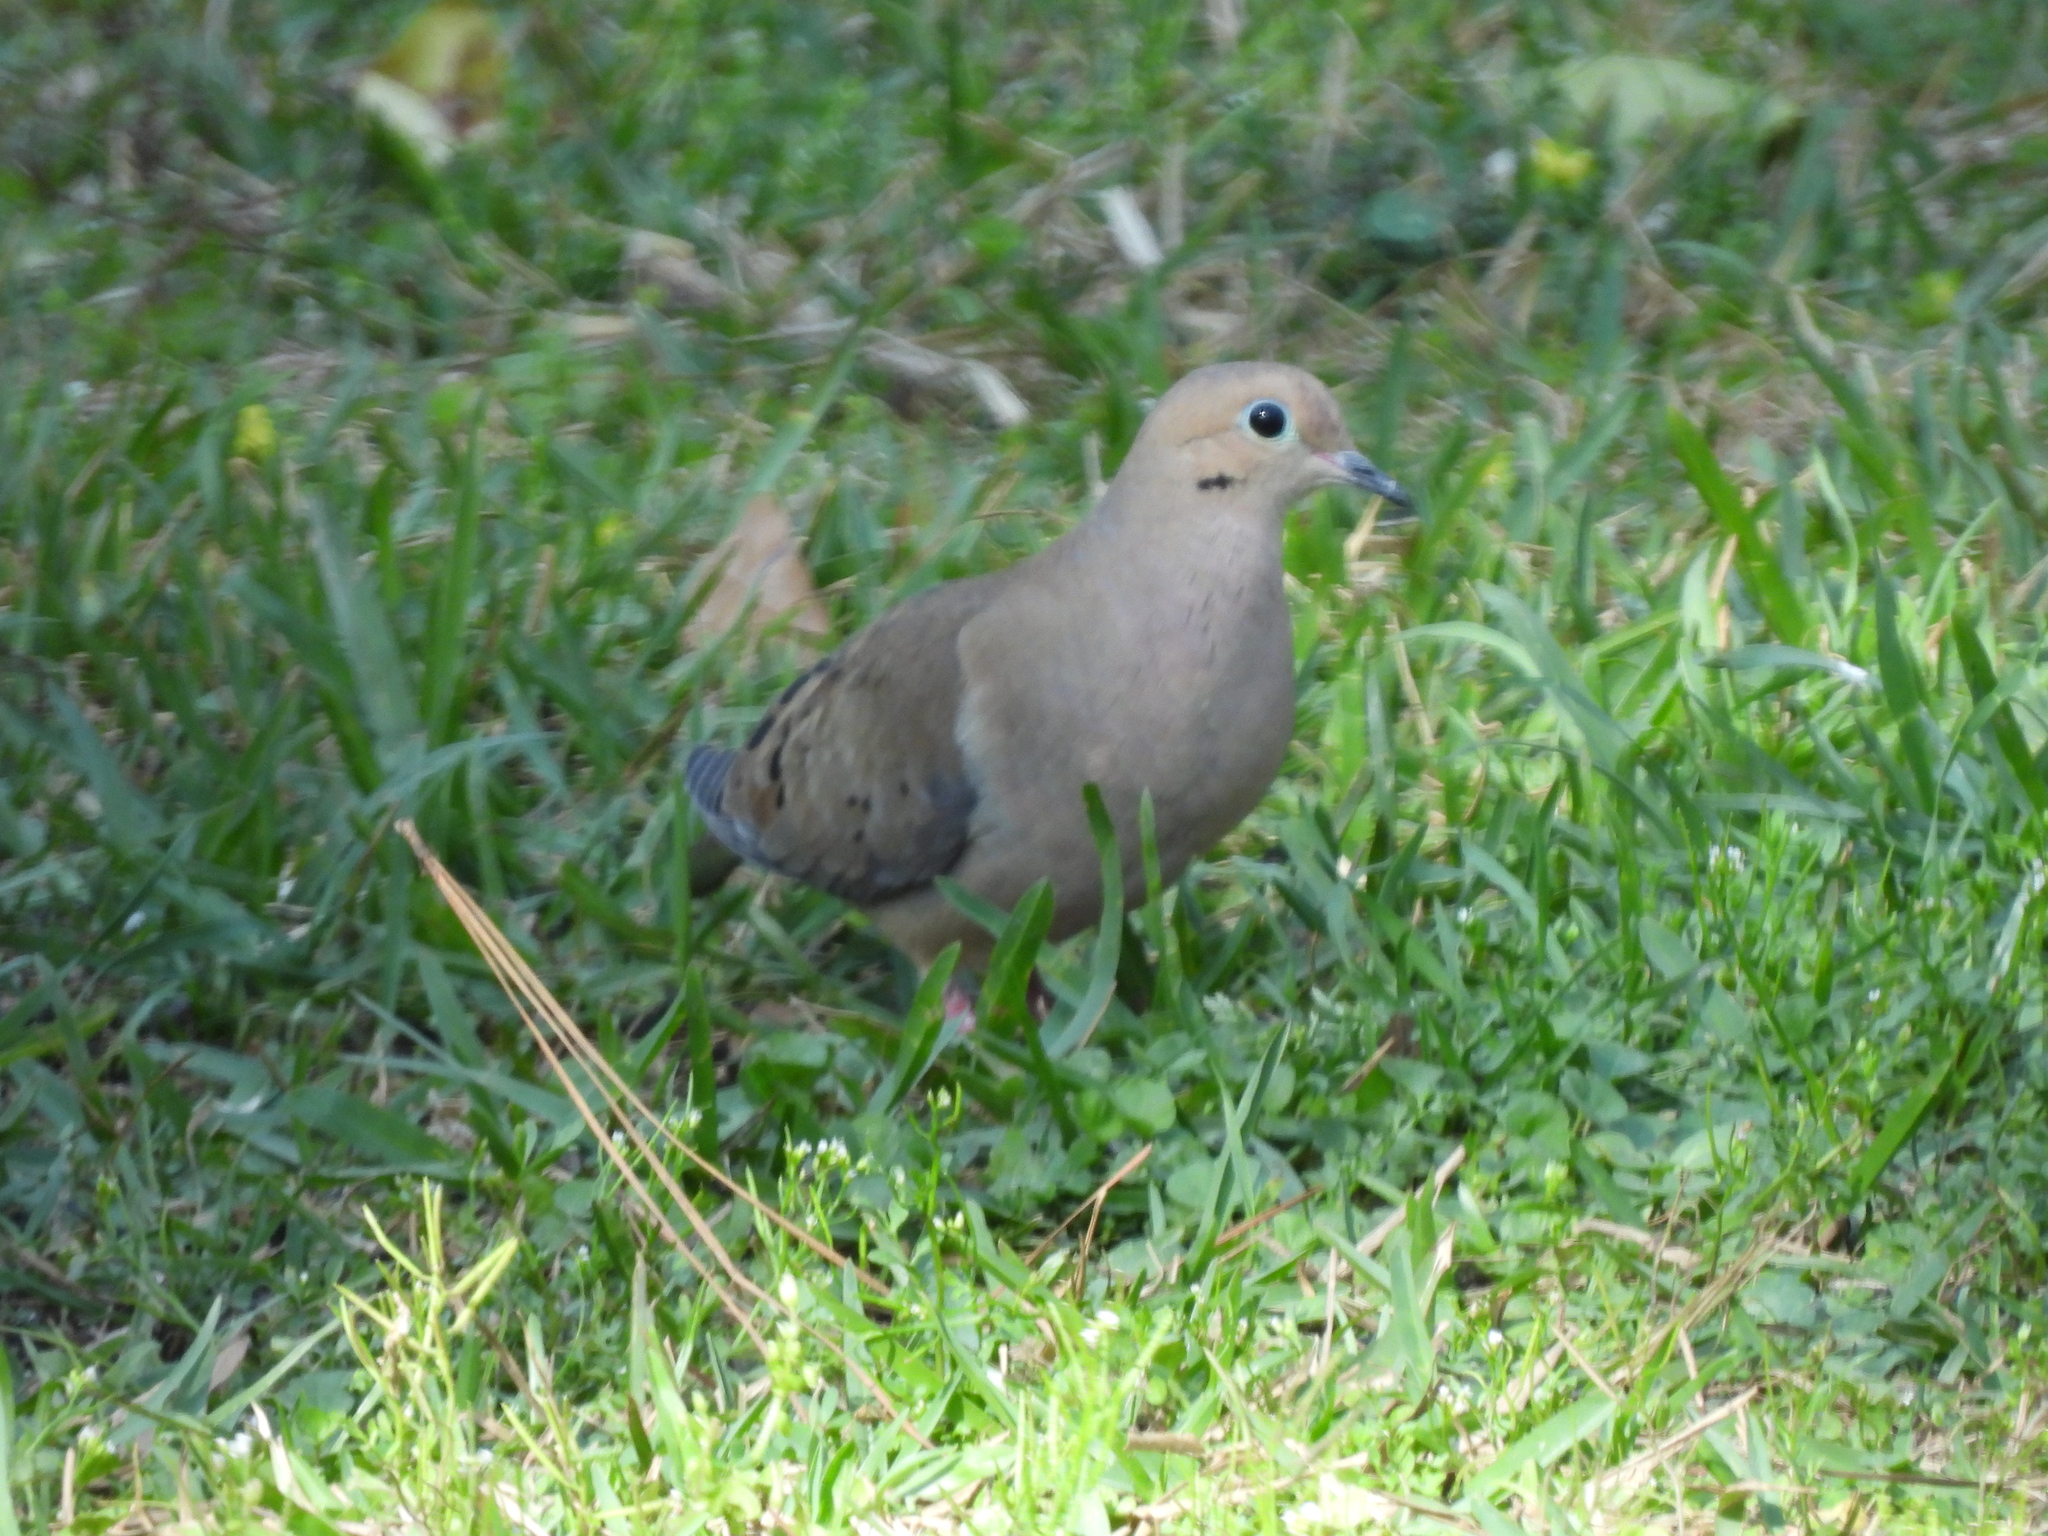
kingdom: Animalia
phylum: Chordata
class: Aves
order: Columbiformes
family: Columbidae
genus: Zenaida
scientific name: Zenaida macroura
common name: Mourning dove
